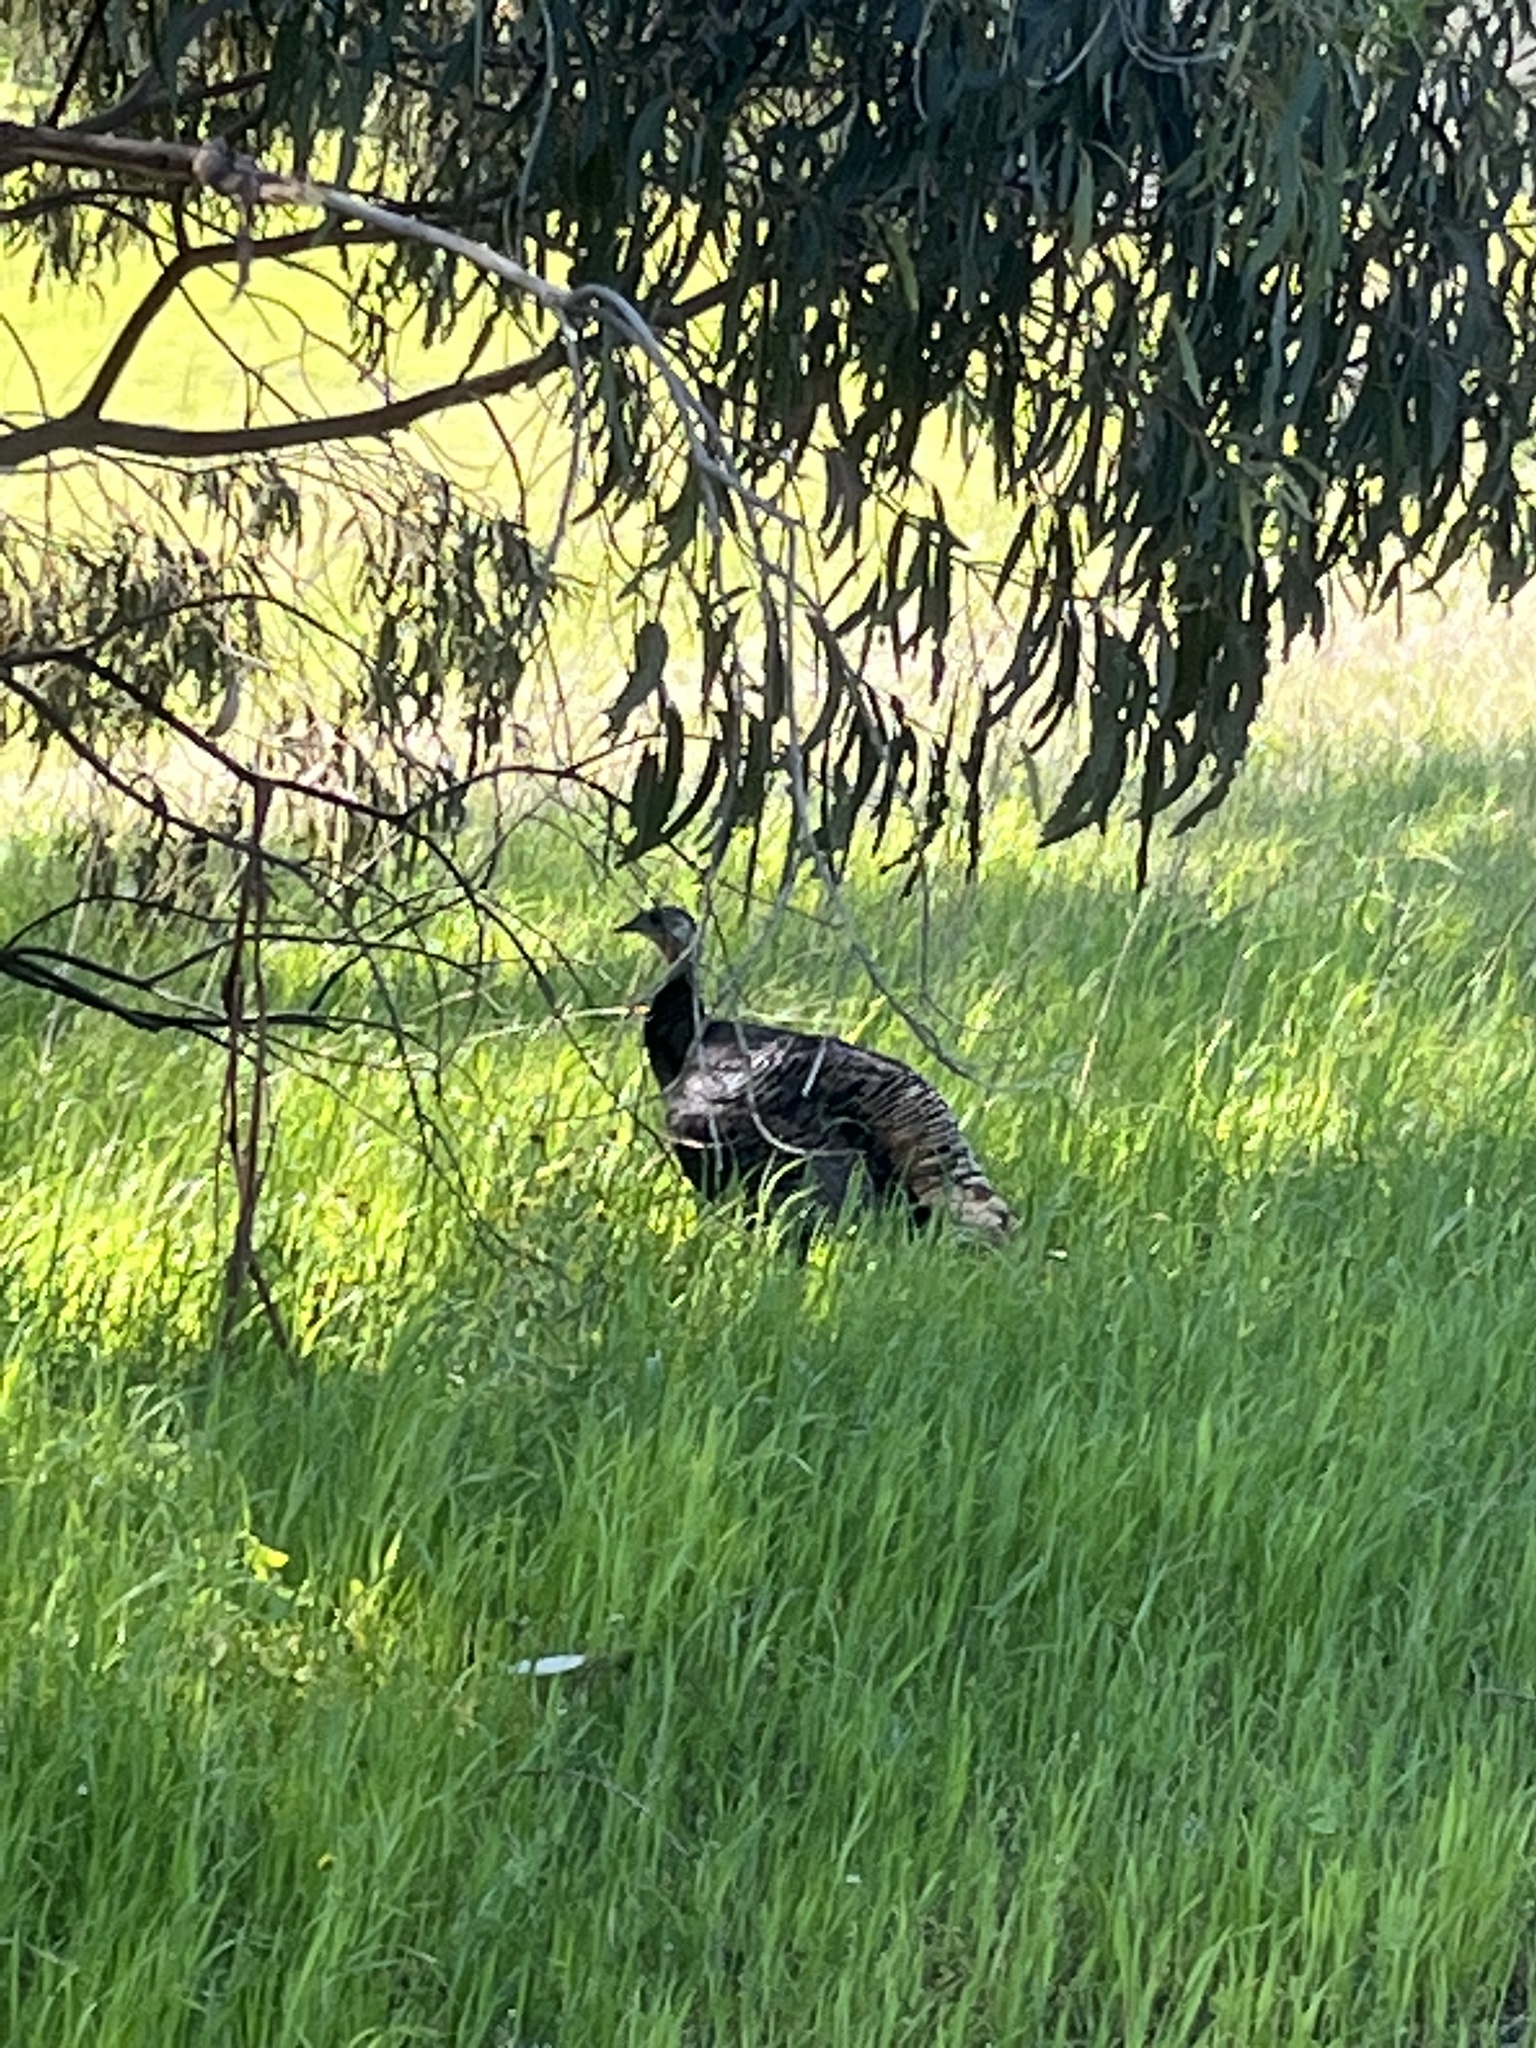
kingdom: Animalia
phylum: Chordata
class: Aves
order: Galliformes
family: Phasianidae
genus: Meleagris
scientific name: Meleagris gallopavo
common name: Wild turkey
